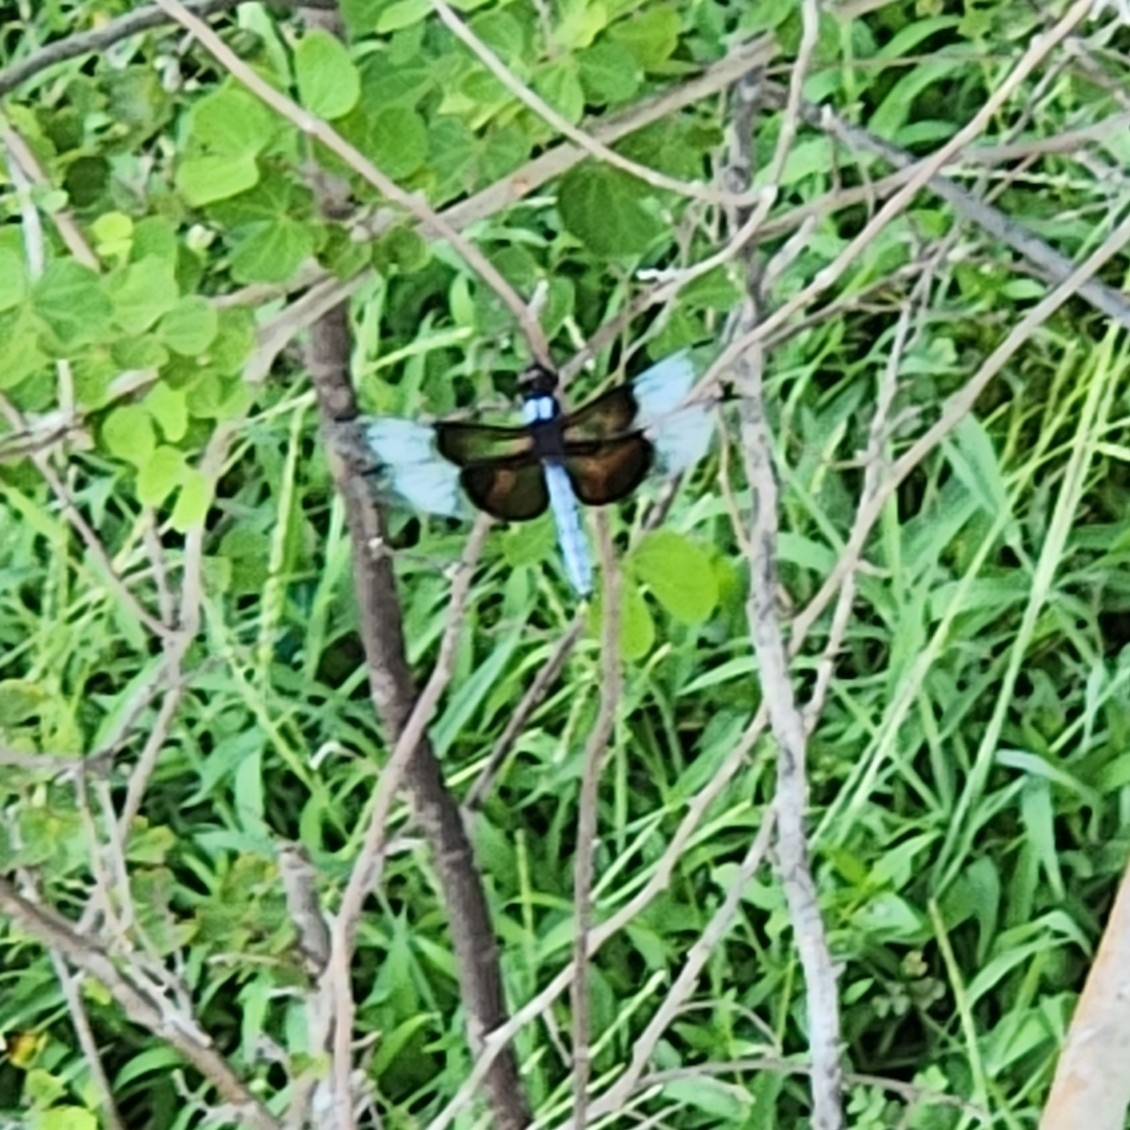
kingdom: Animalia
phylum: Arthropoda
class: Insecta
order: Odonata
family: Libellulidae
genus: Libellula
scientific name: Libellula luctuosa
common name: Widow skimmer
